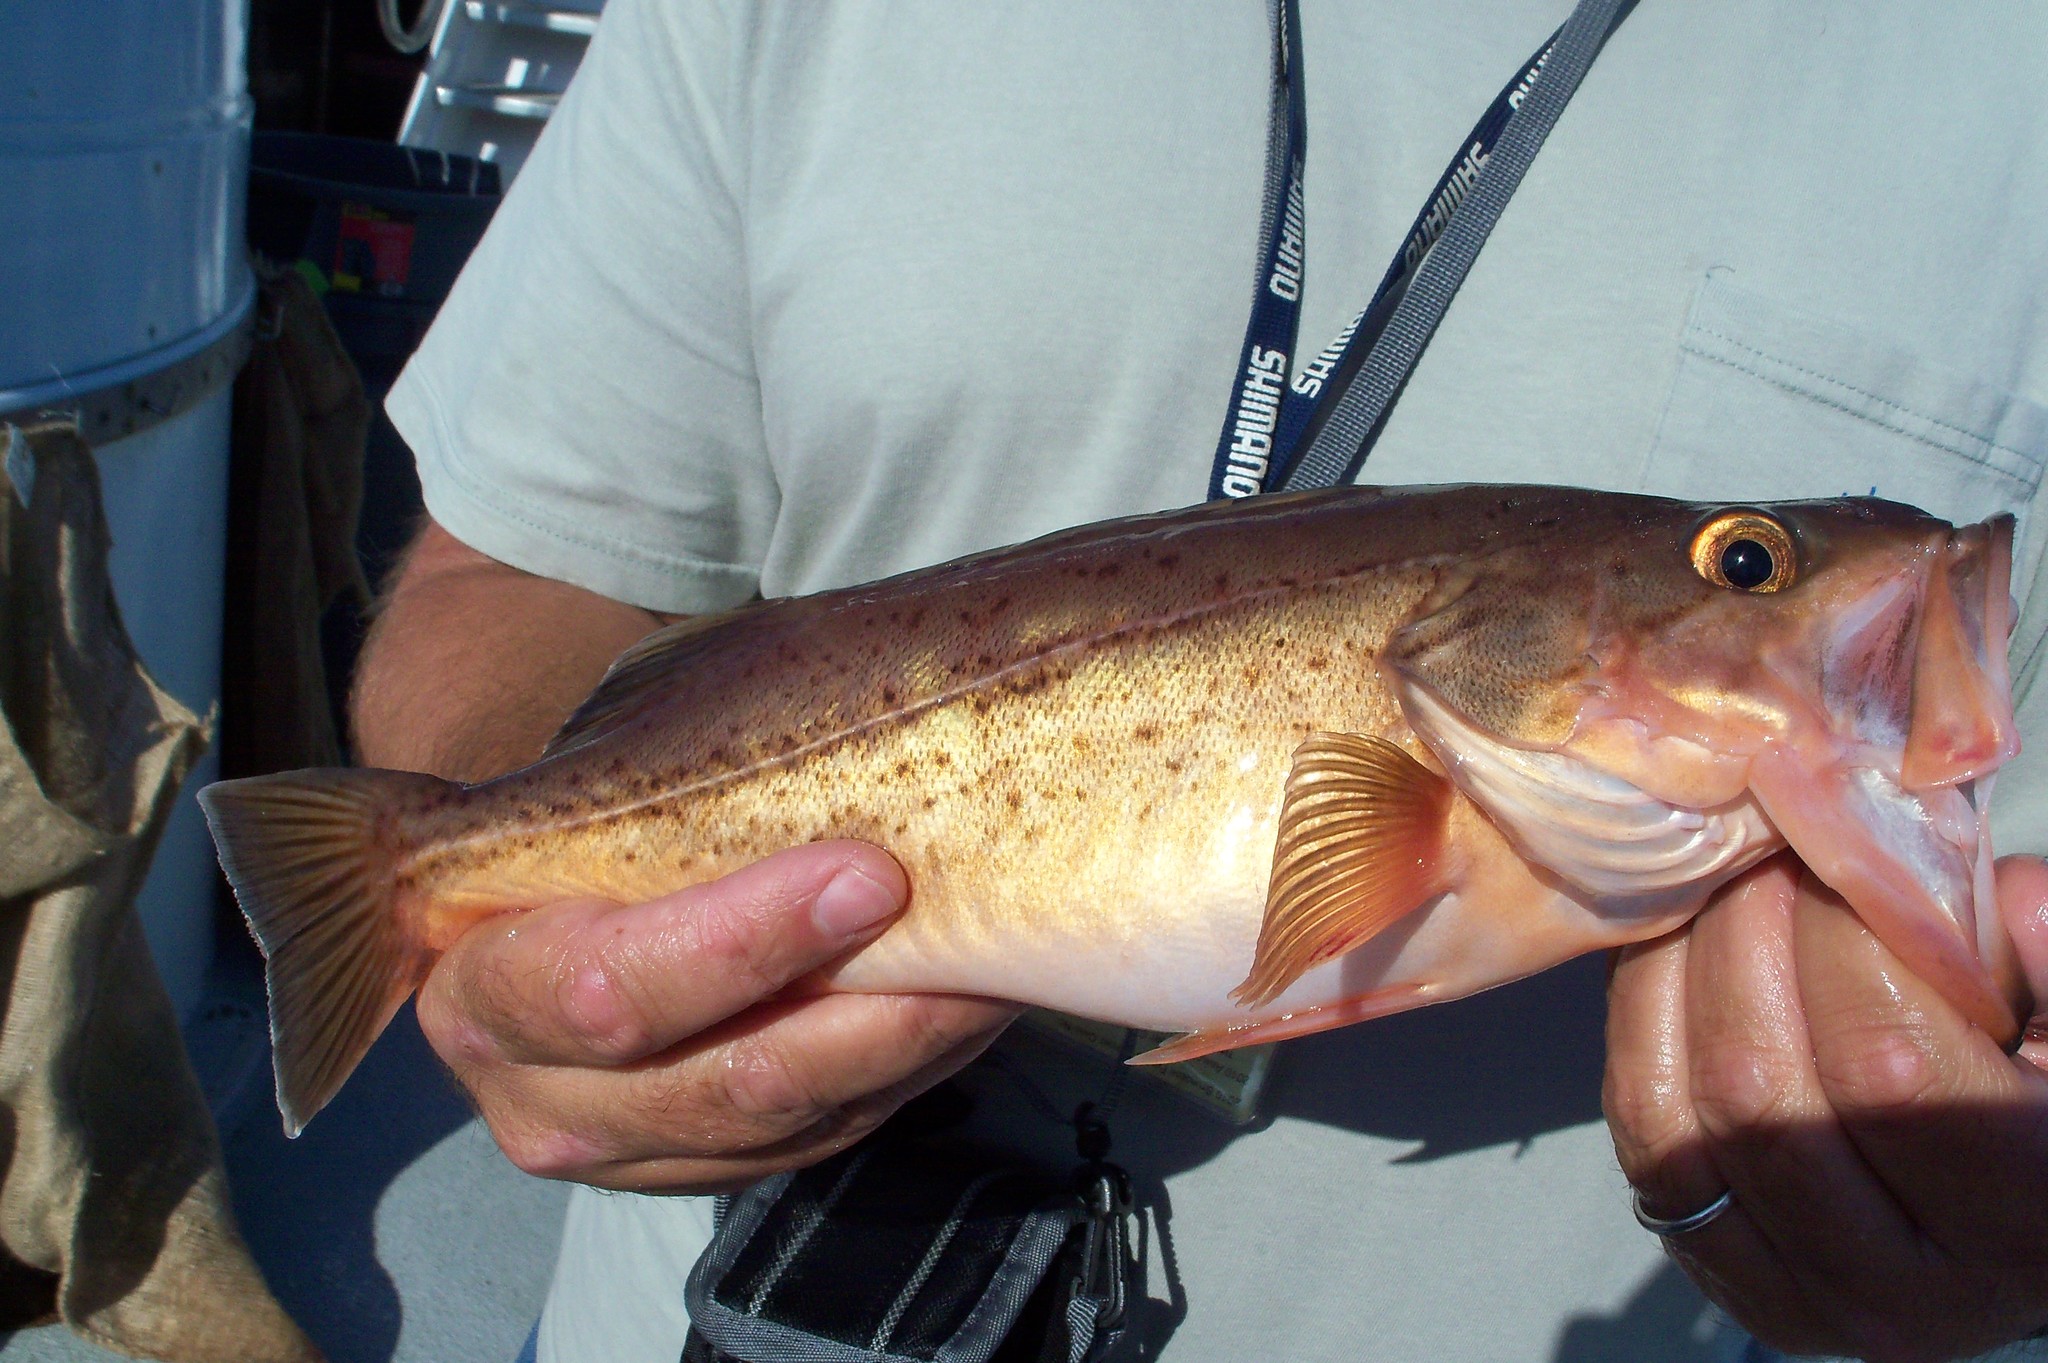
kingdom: Animalia
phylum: Chordata
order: Scorpaeniformes
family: Sebastidae
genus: Sebastes
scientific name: Sebastes paucispinis
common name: Bocaccio
